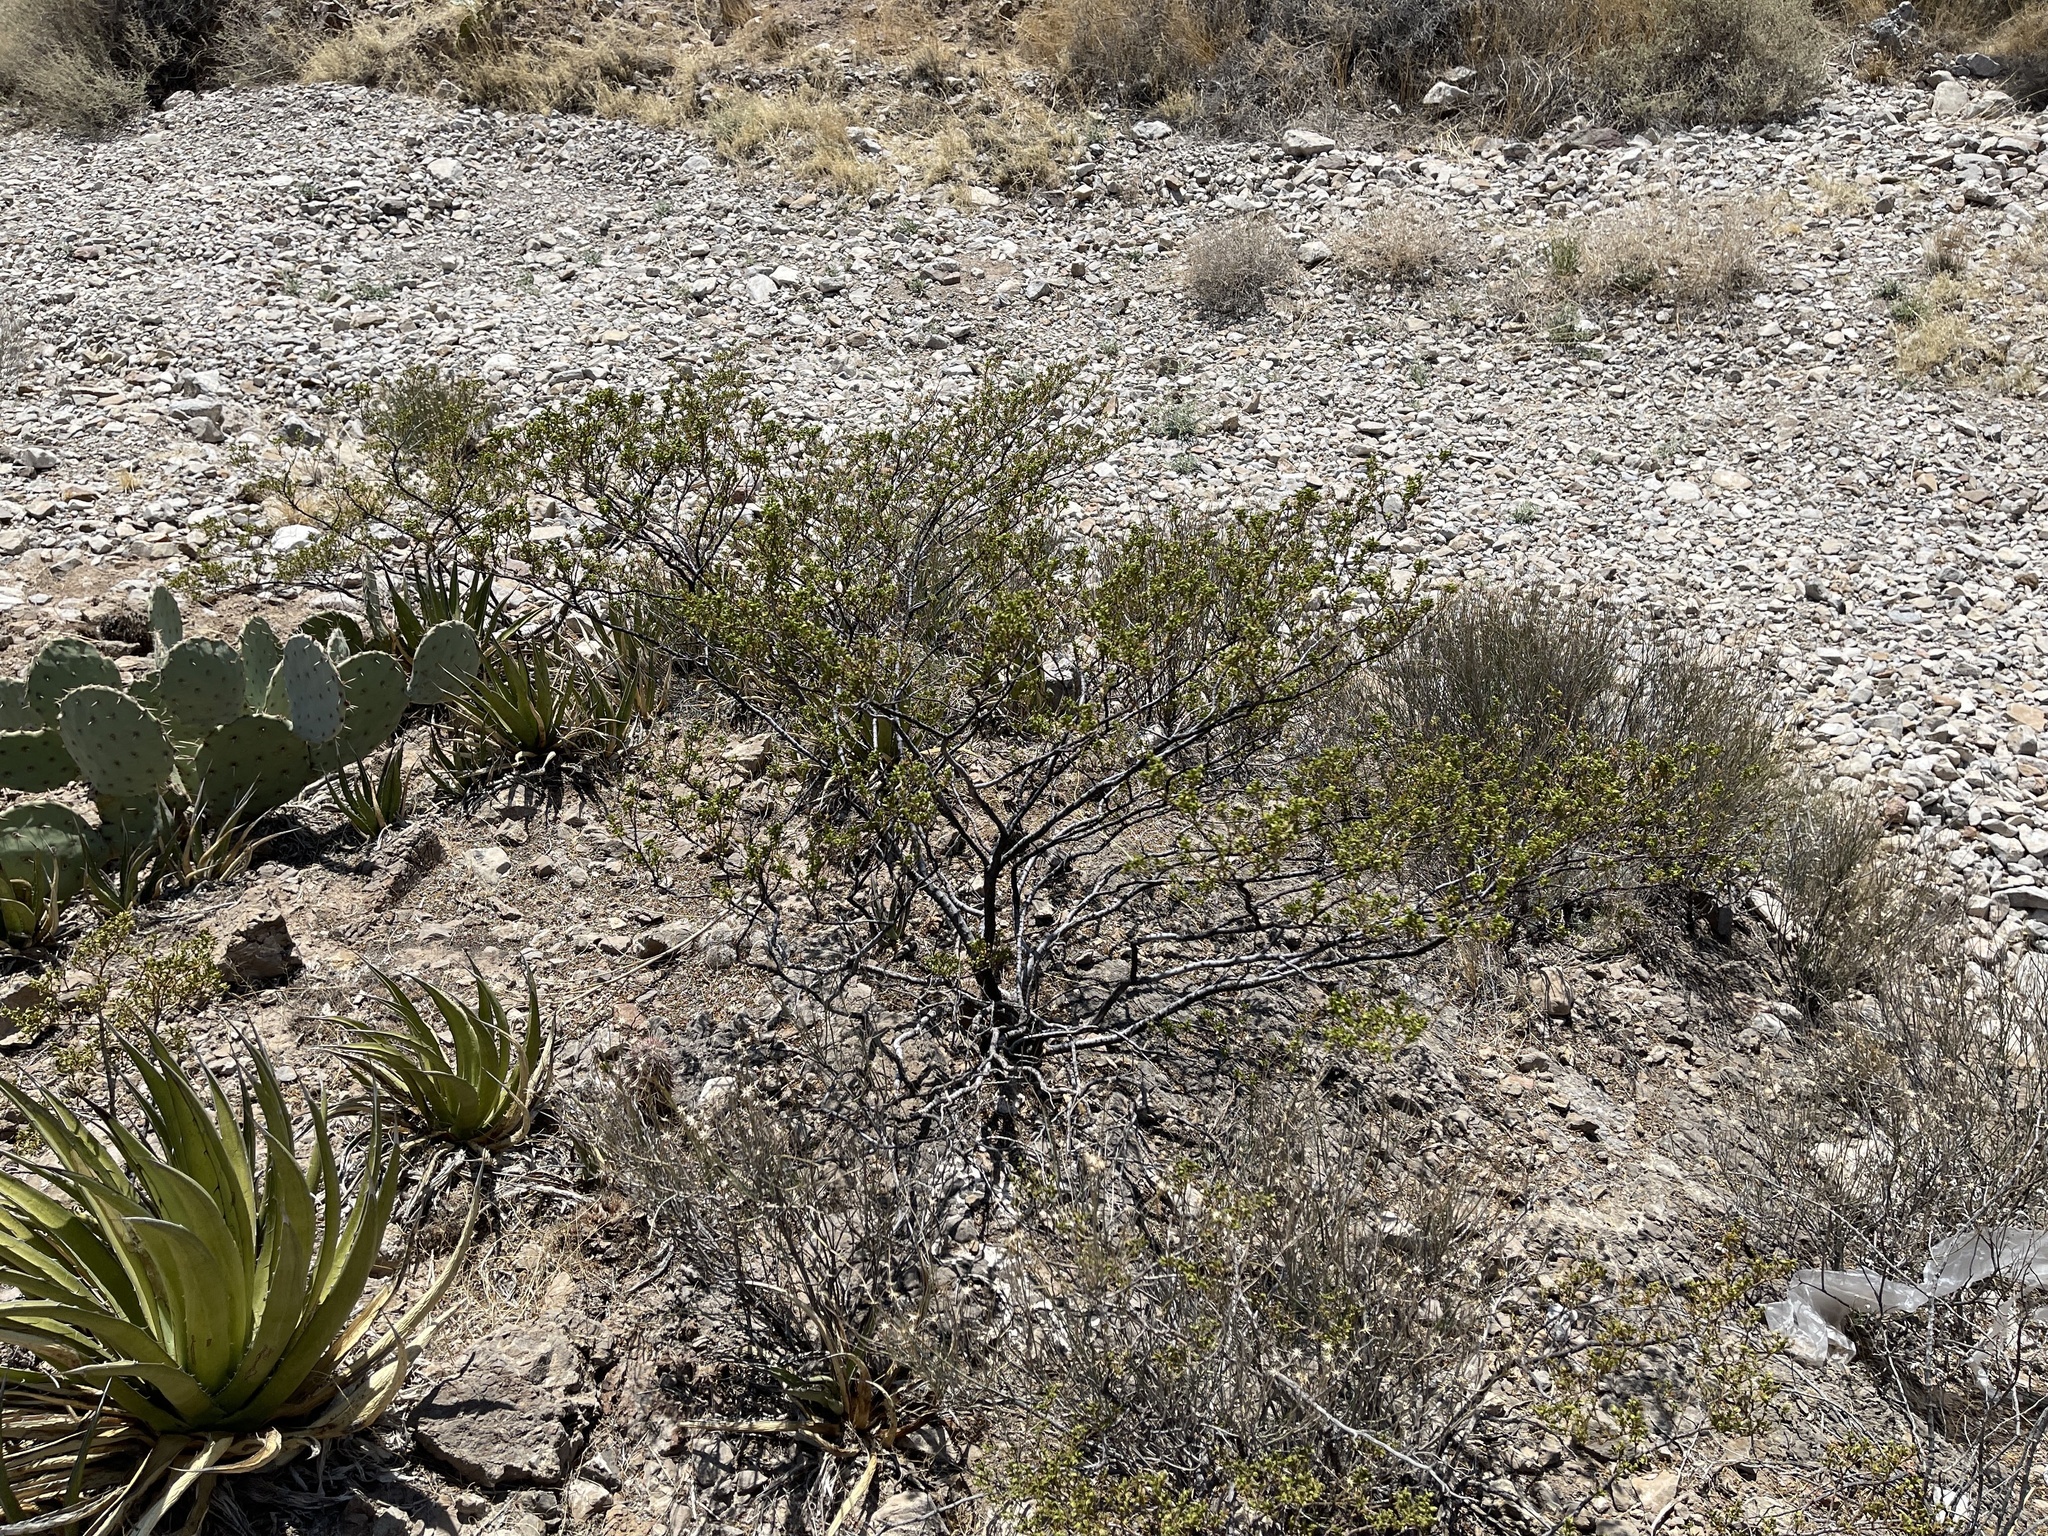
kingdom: Plantae
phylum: Tracheophyta
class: Magnoliopsida
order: Zygophyllales
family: Zygophyllaceae
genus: Larrea
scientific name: Larrea tridentata
